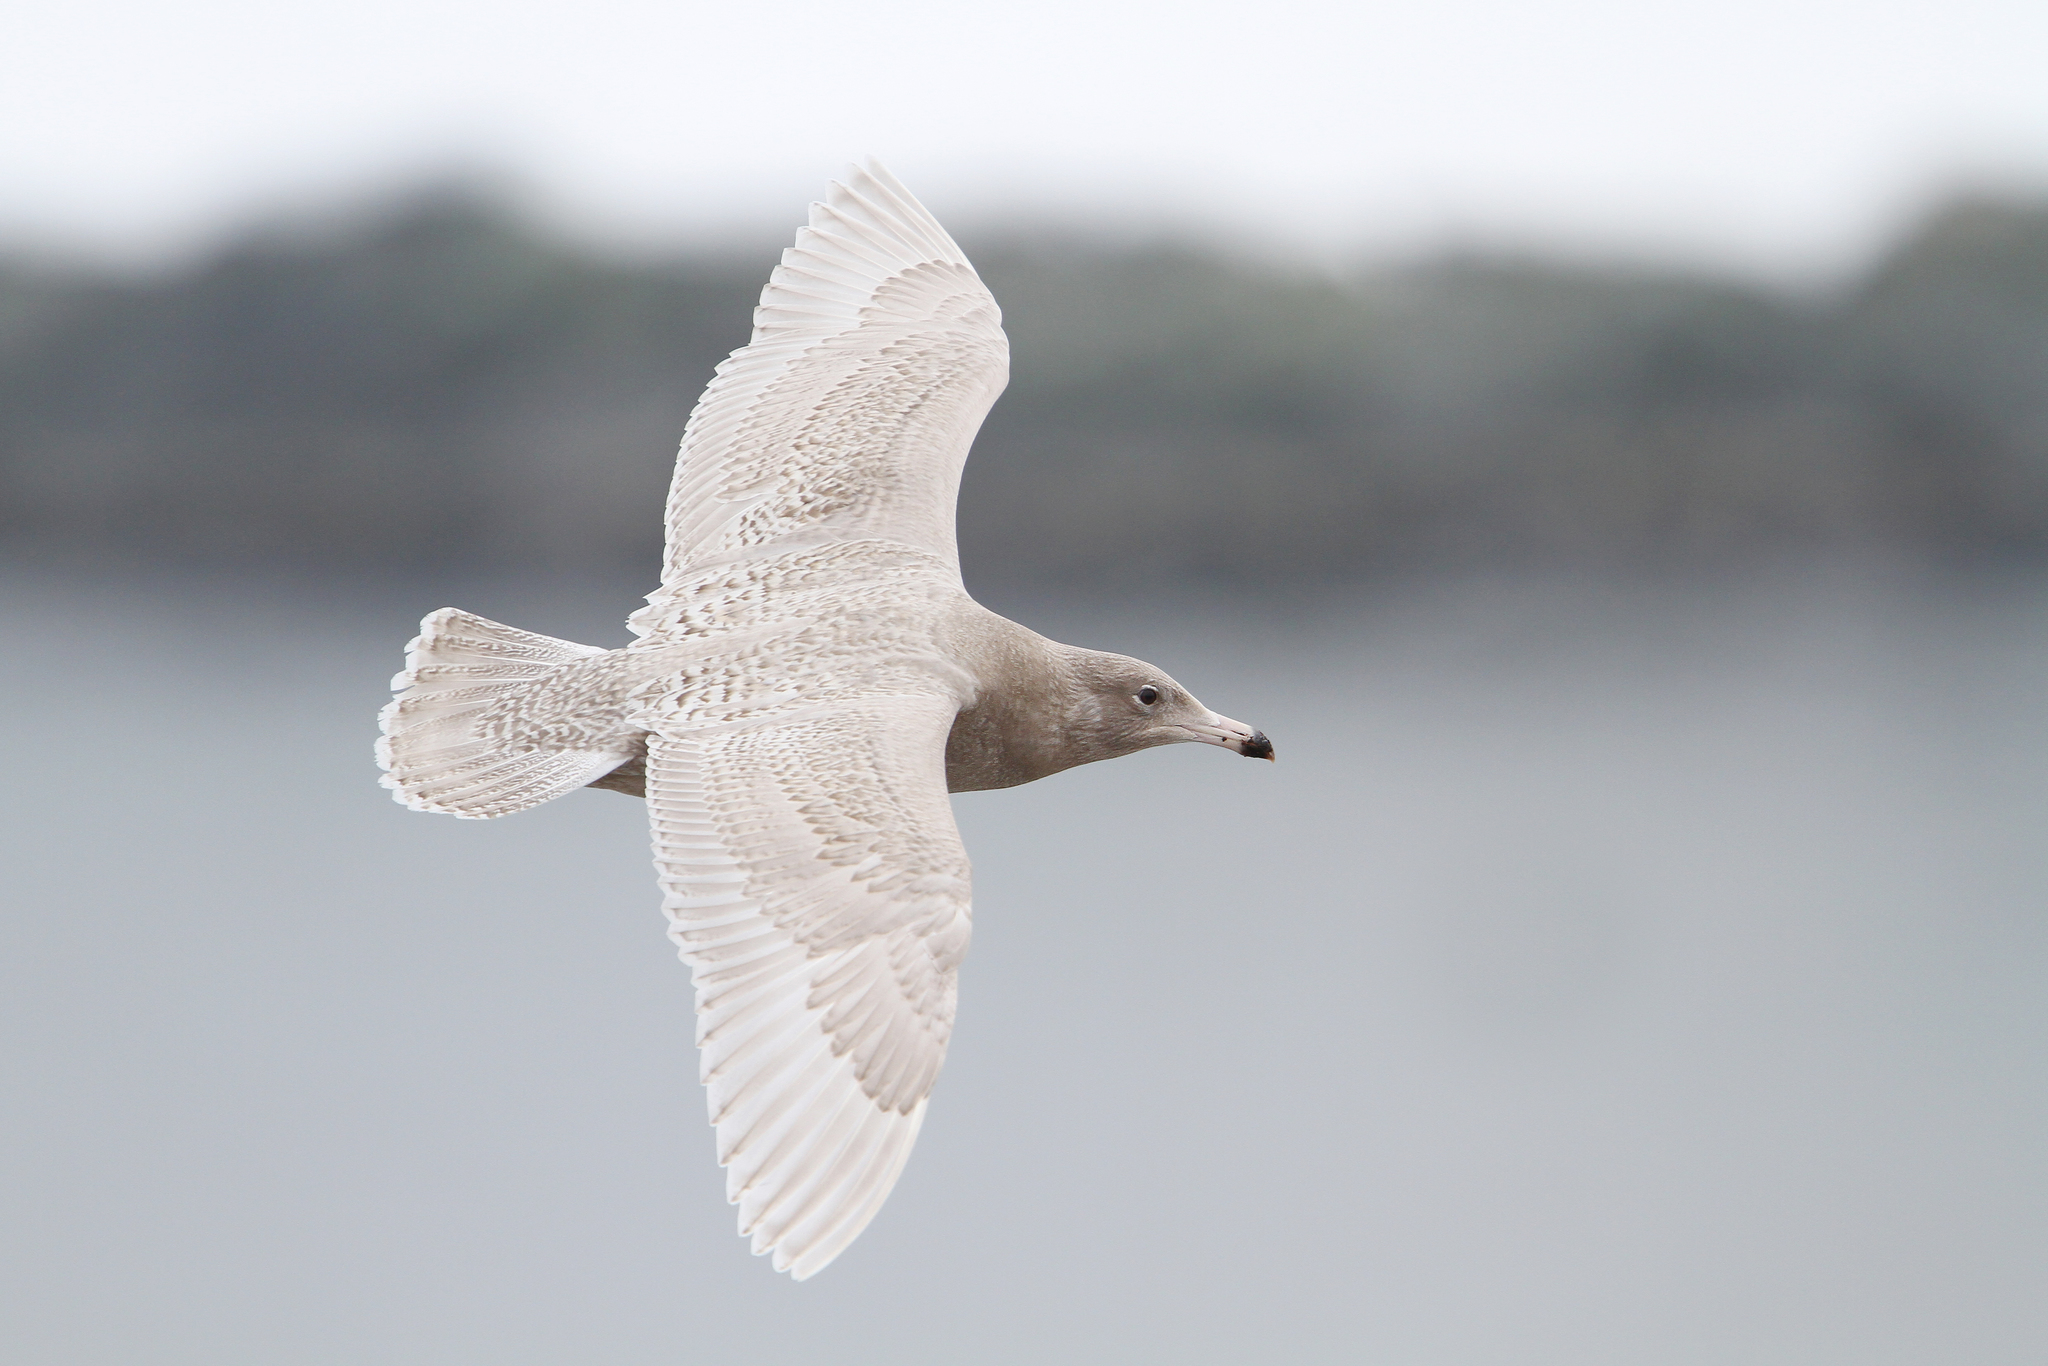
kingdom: Animalia
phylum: Chordata
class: Aves
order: Charadriiformes
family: Laridae
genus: Larus
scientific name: Larus hyperboreus
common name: Glaucous gull
